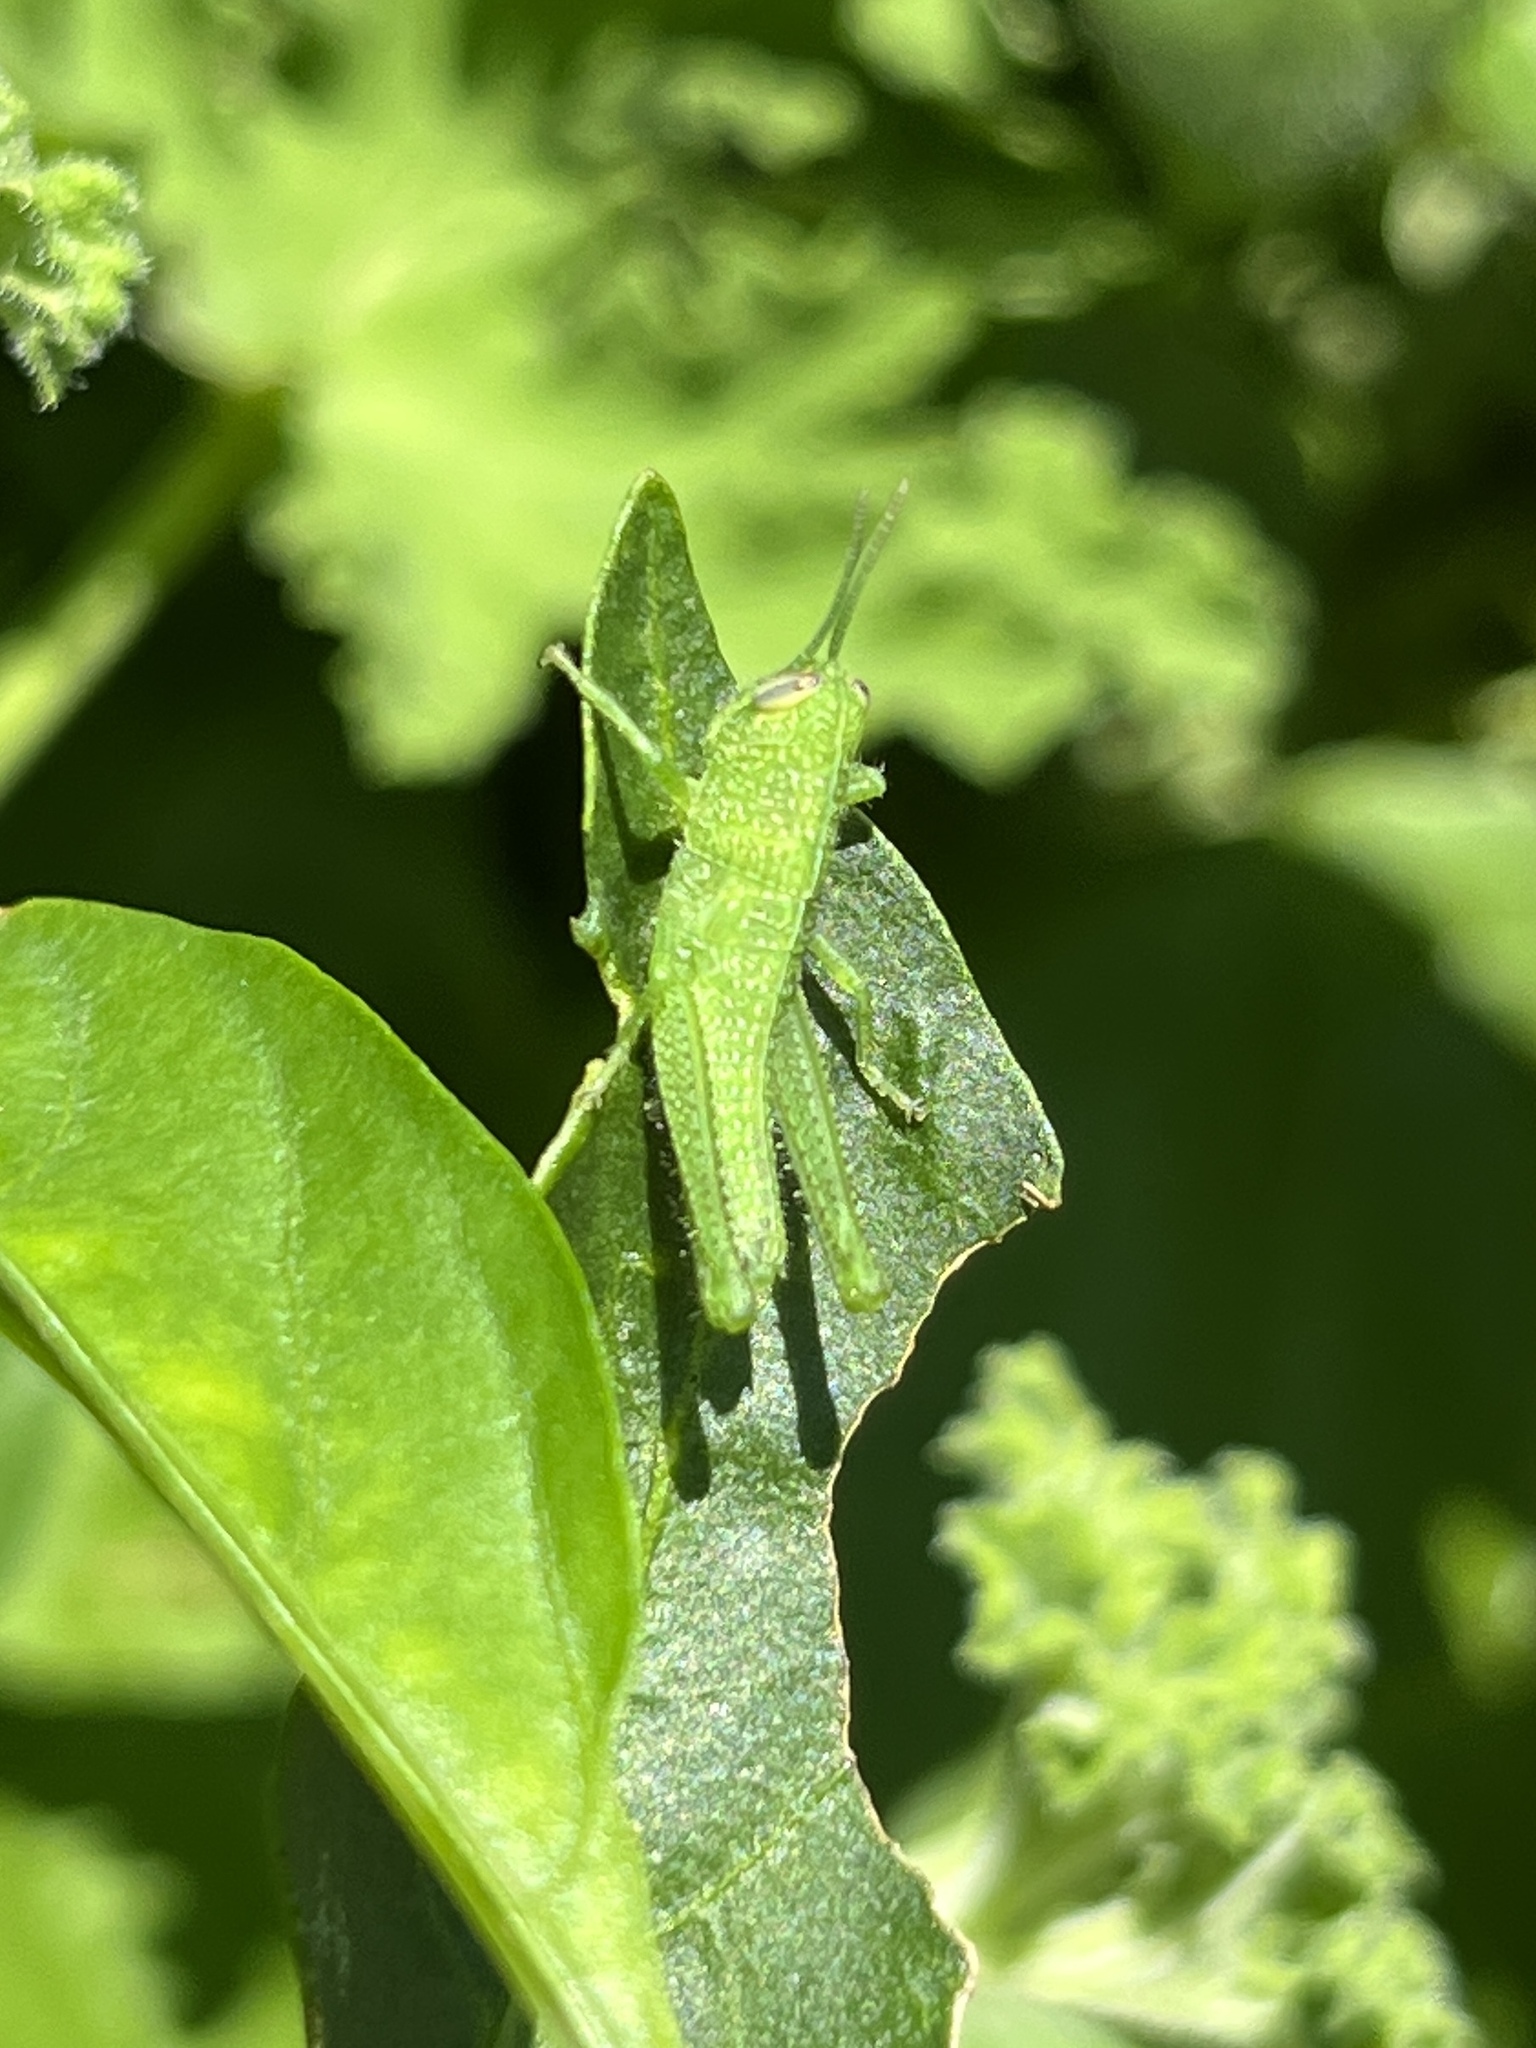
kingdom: Animalia
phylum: Arthropoda
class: Insecta
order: Orthoptera
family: Acrididae
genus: Schistocerca
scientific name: Schistocerca obscura
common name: Obscure bird grasshopper
